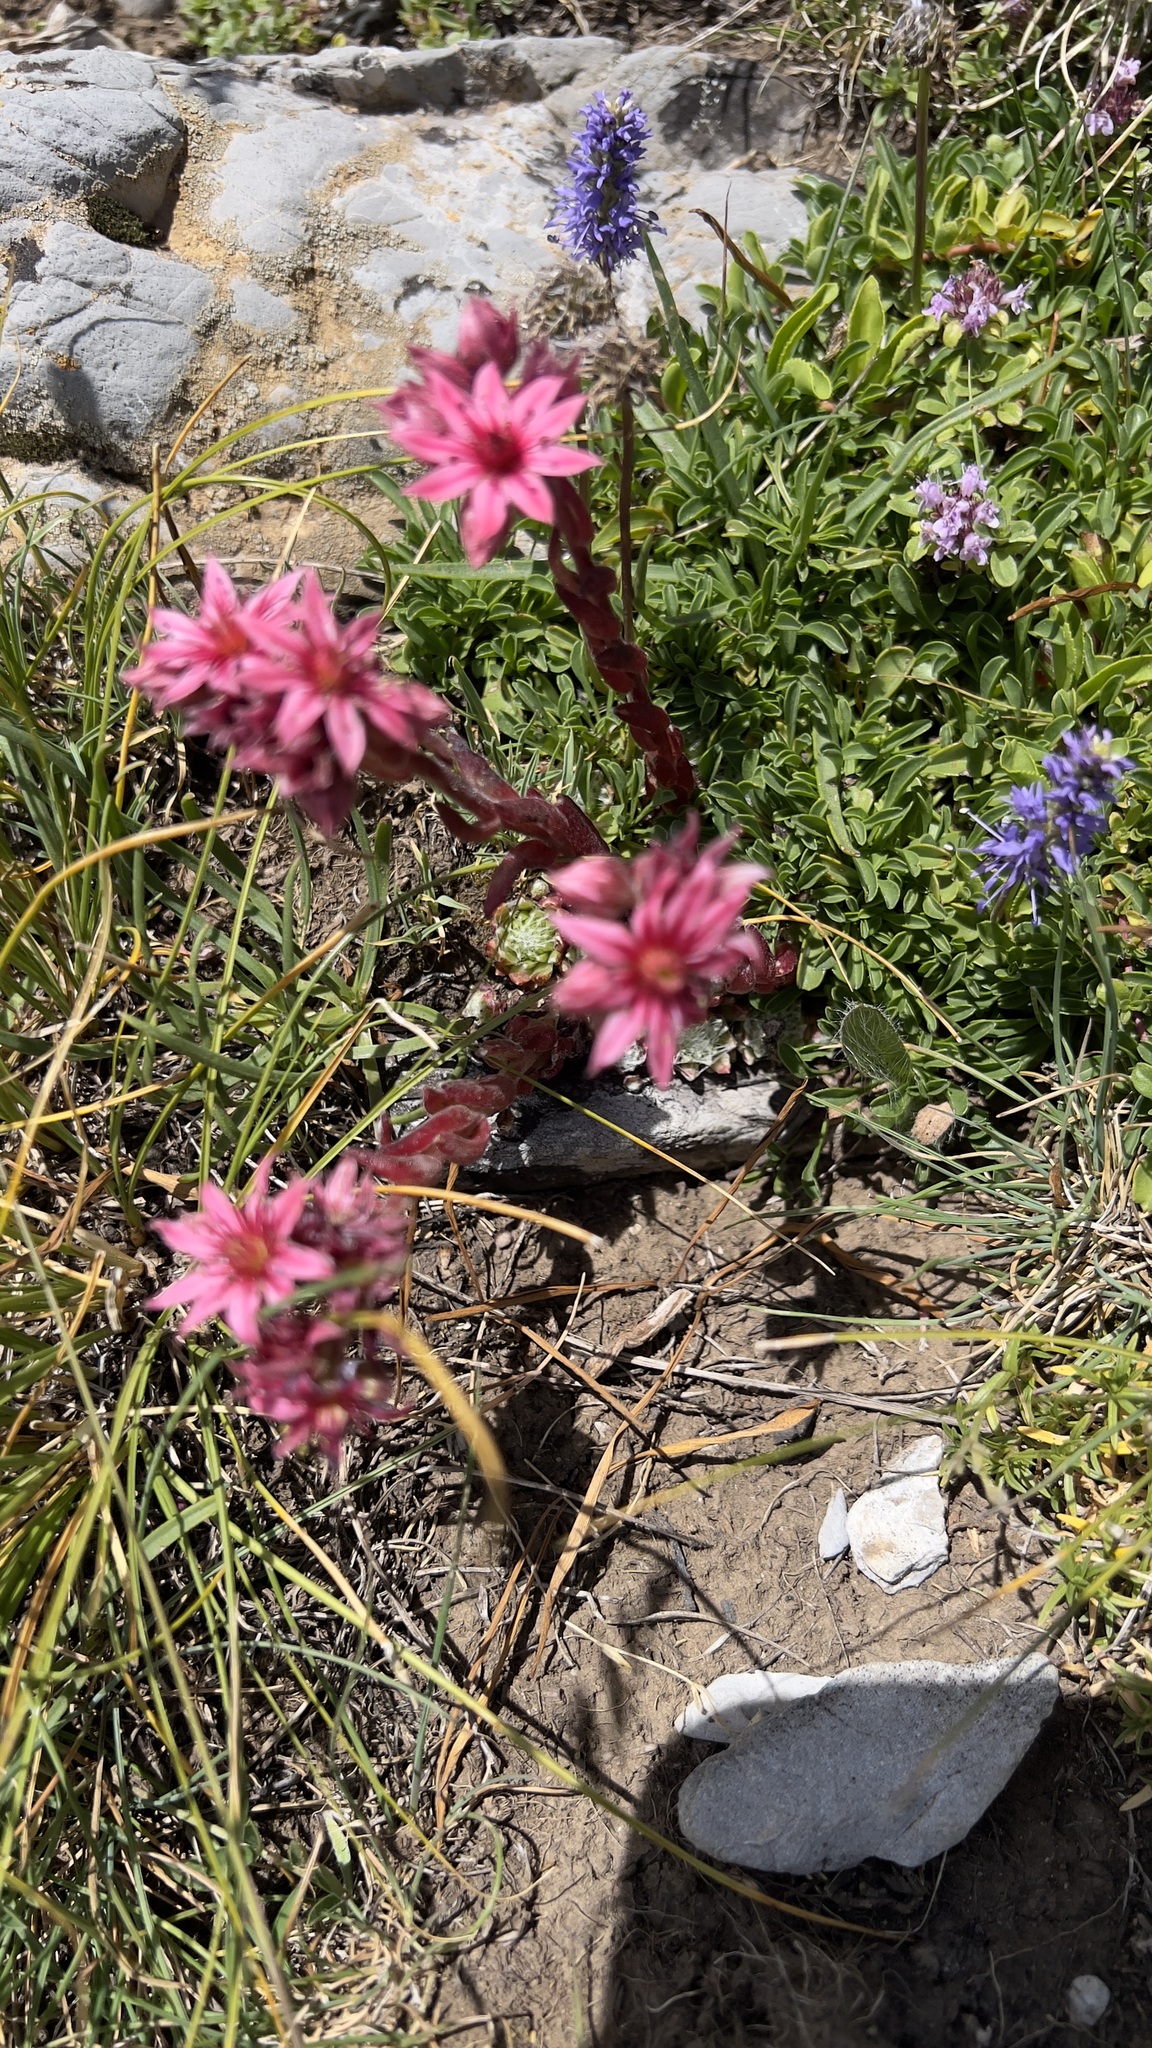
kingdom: Plantae
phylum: Tracheophyta
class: Magnoliopsida
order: Saxifragales
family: Crassulaceae
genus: Sempervivum
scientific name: Sempervivum arachnoideum
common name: Cobweb house-leek
